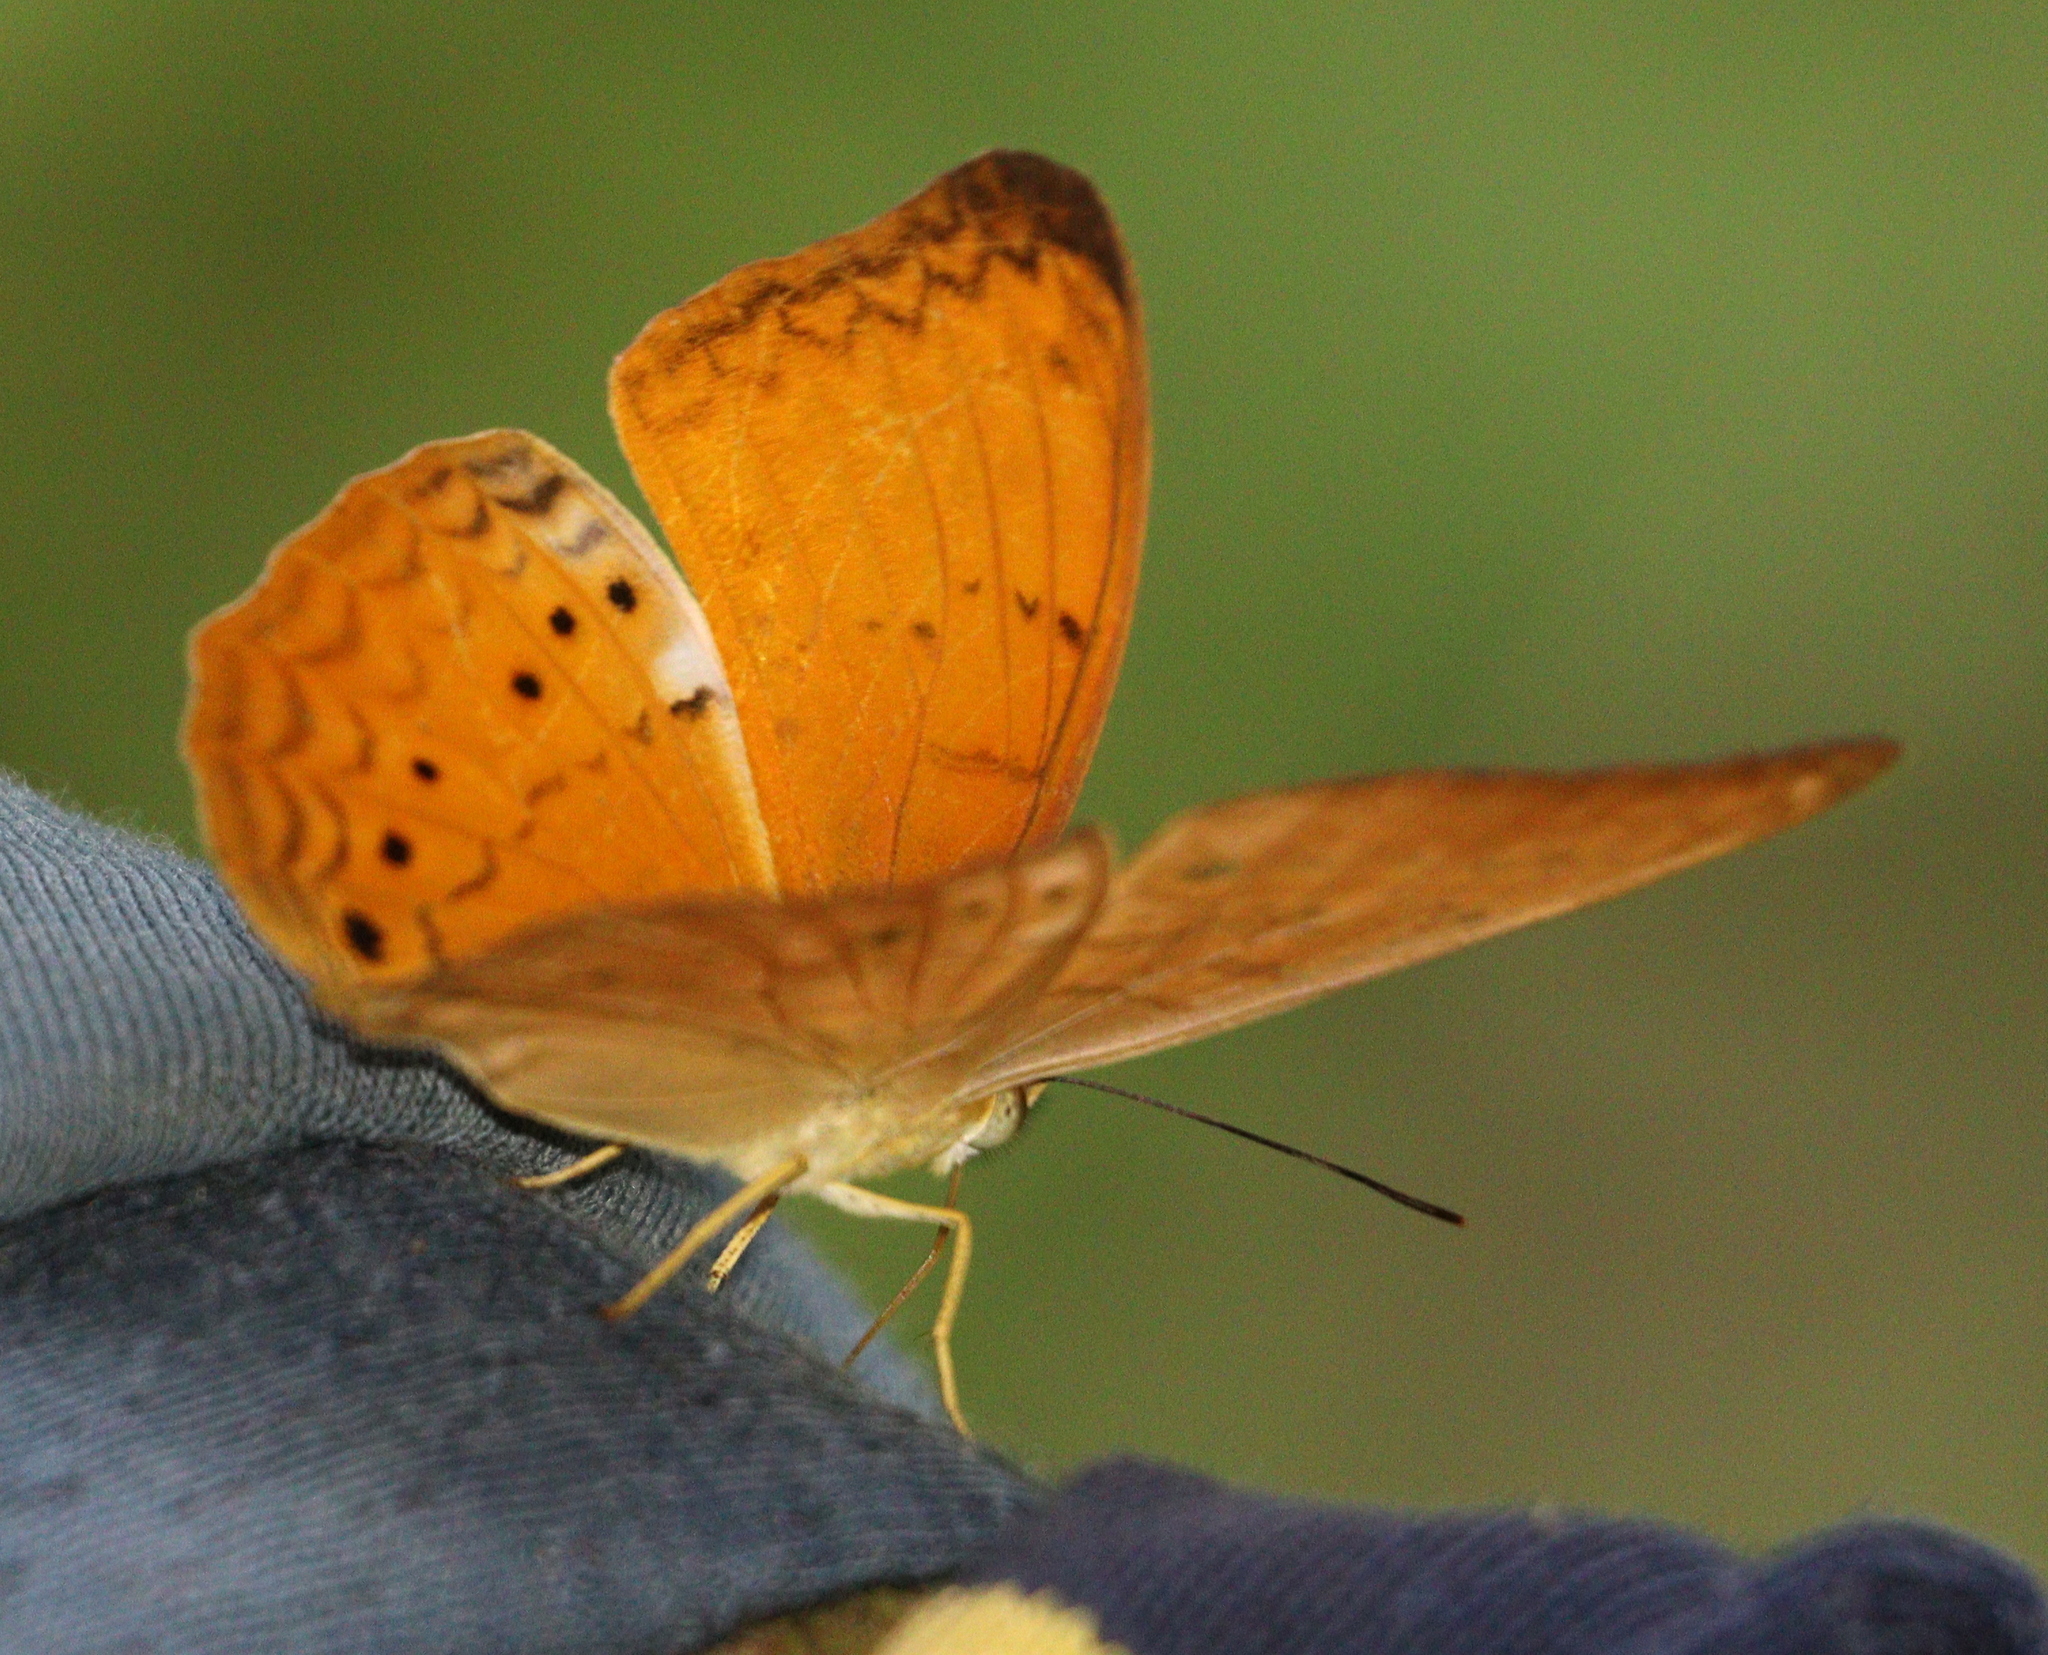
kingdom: Animalia
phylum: Arthropoda
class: Insecta
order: Lepidoptera
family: Nymphalidae
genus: Cirrochroa
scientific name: Cirrochroa tyche
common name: Common yeoman
